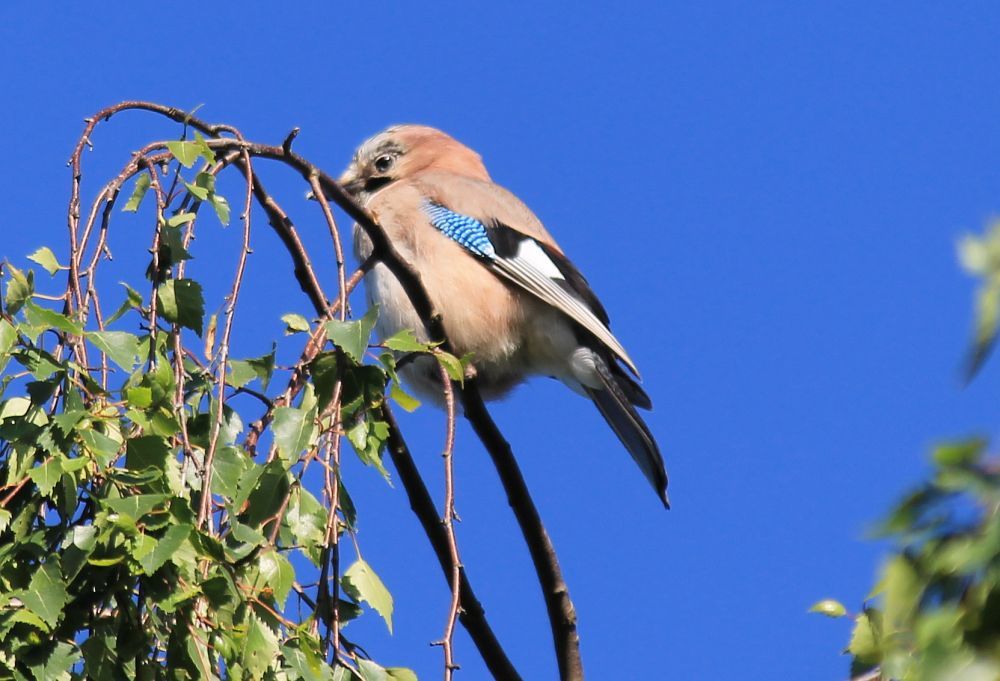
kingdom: Animalia
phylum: Chordata
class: Aves
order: Passeriformes
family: Corvidae
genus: Garrulus
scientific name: Garrulus glandarius
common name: Eurasian jay
